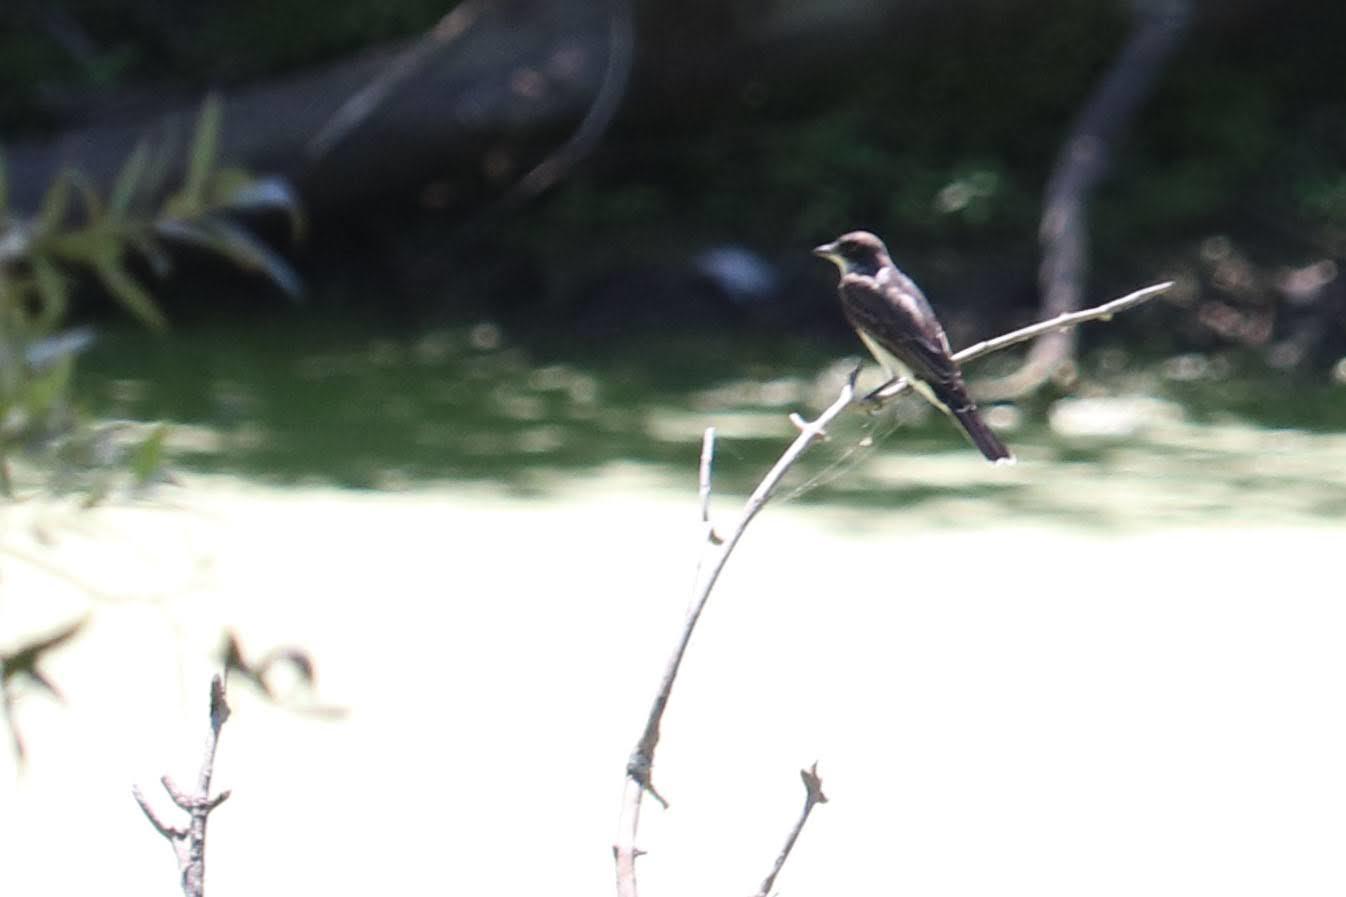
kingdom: Animalia
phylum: Chordata
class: Aves
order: Passeriformes
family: Tyrannidae
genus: Tyrannus
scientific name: Tyrannus tyrannus
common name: Eastern kingbird
